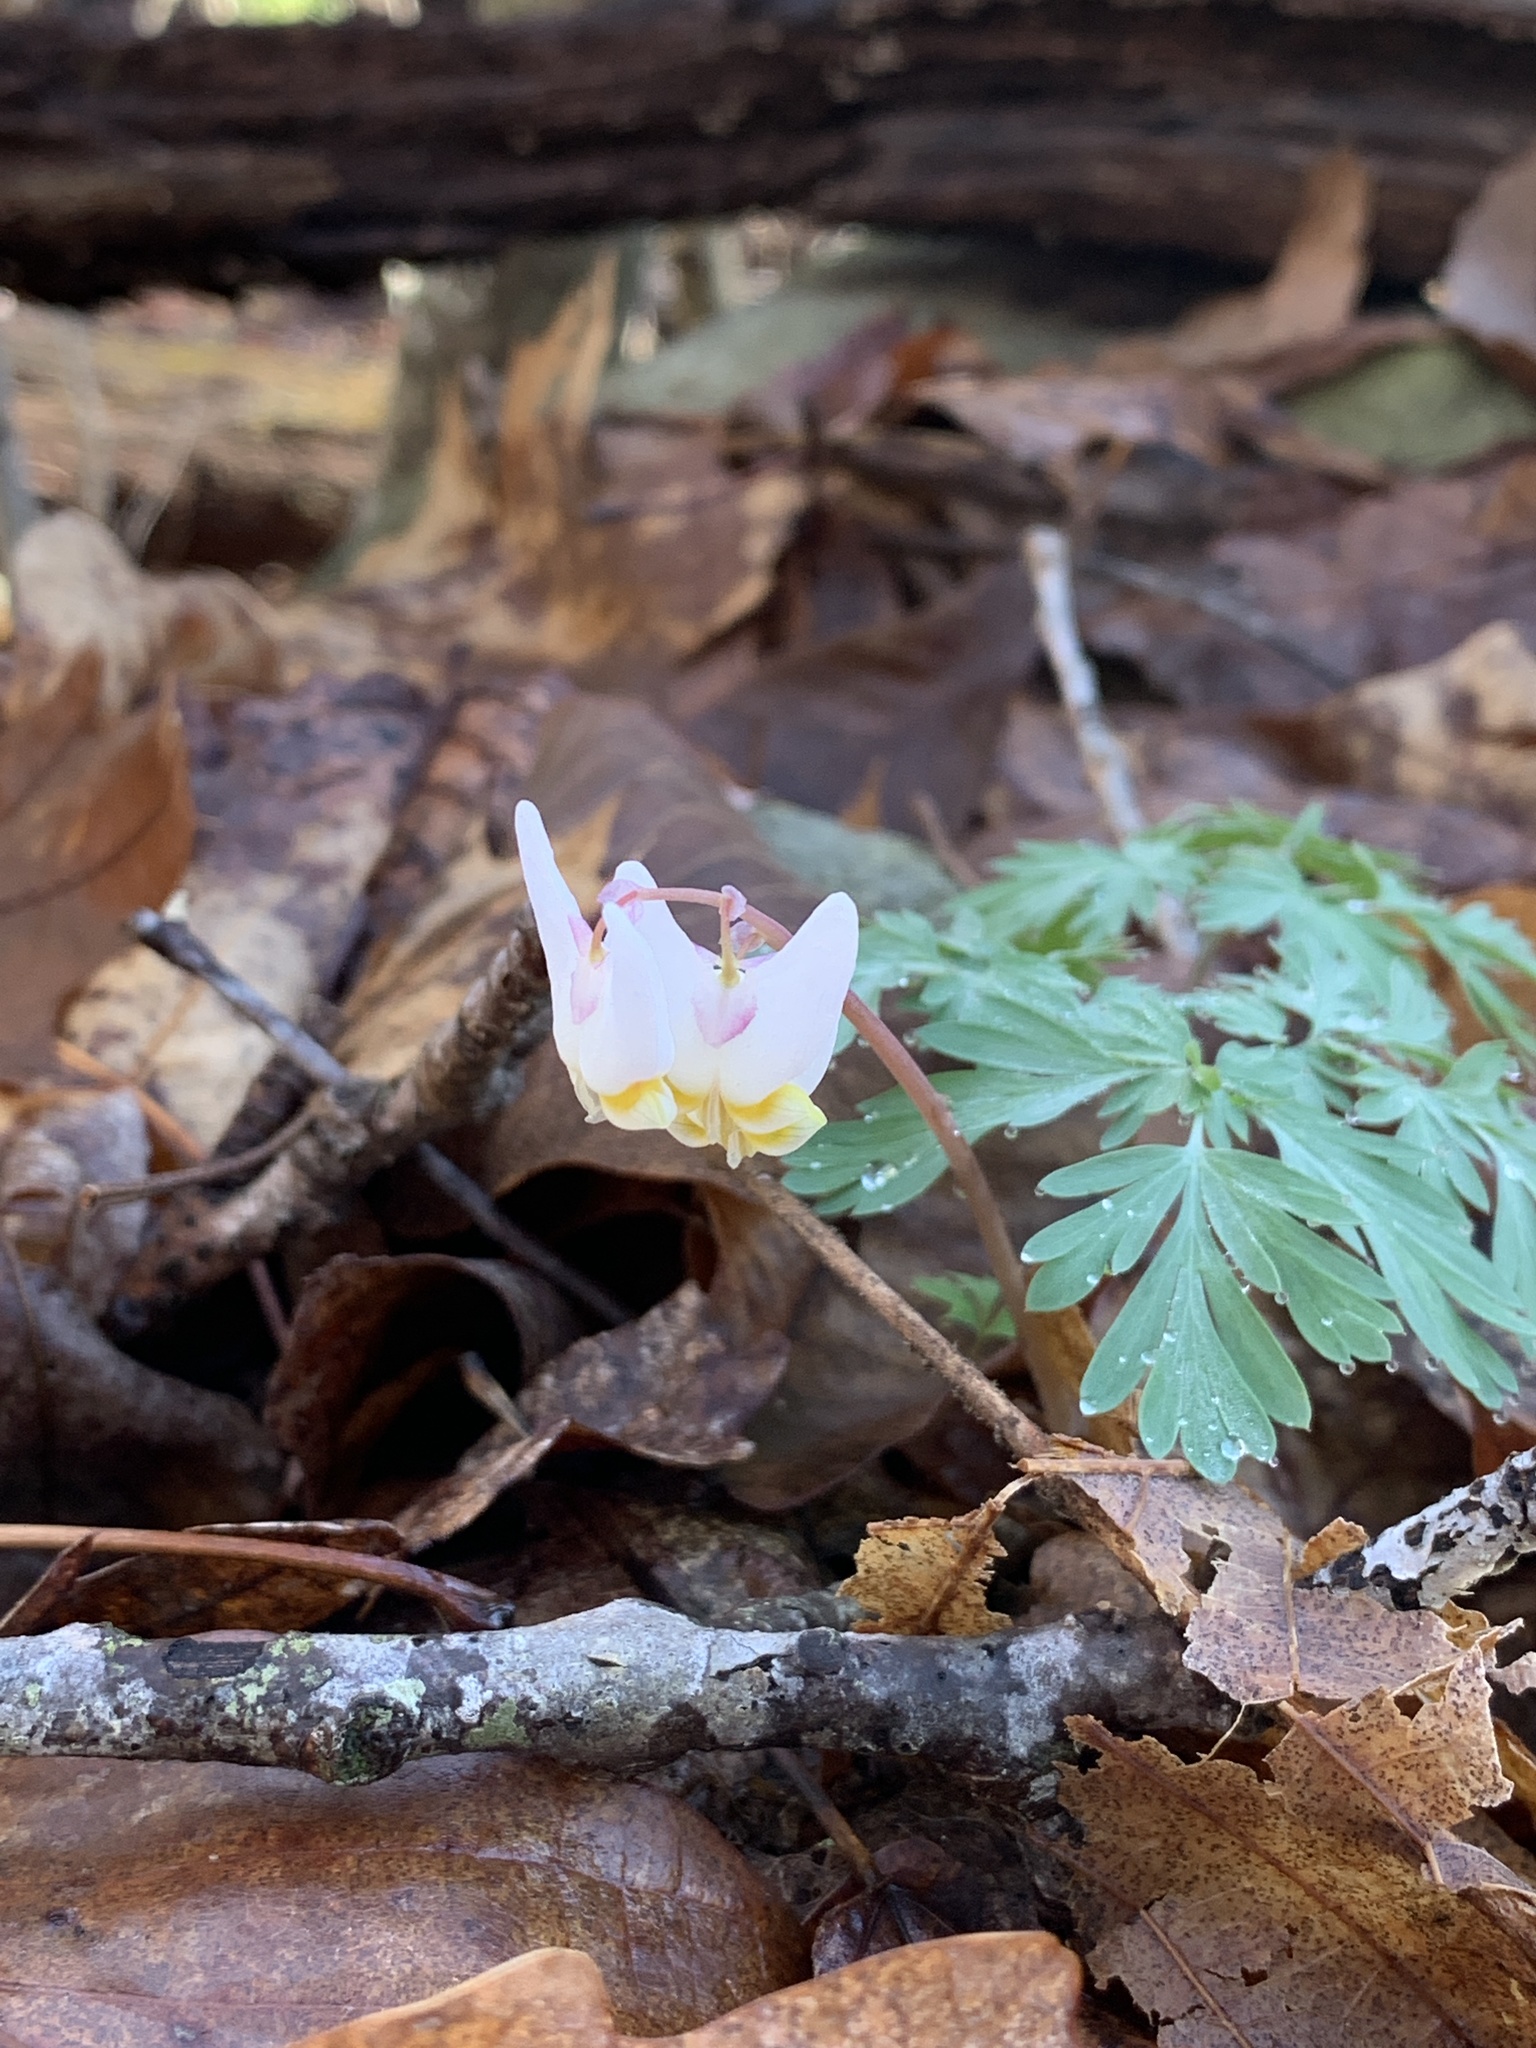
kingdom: Plantae
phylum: Tracheophyta
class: Magnoliopsida
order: Ranunculales
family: Papaveraceae
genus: Dicentra
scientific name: Dicentra cucullaria
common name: Dutchman's breeches
